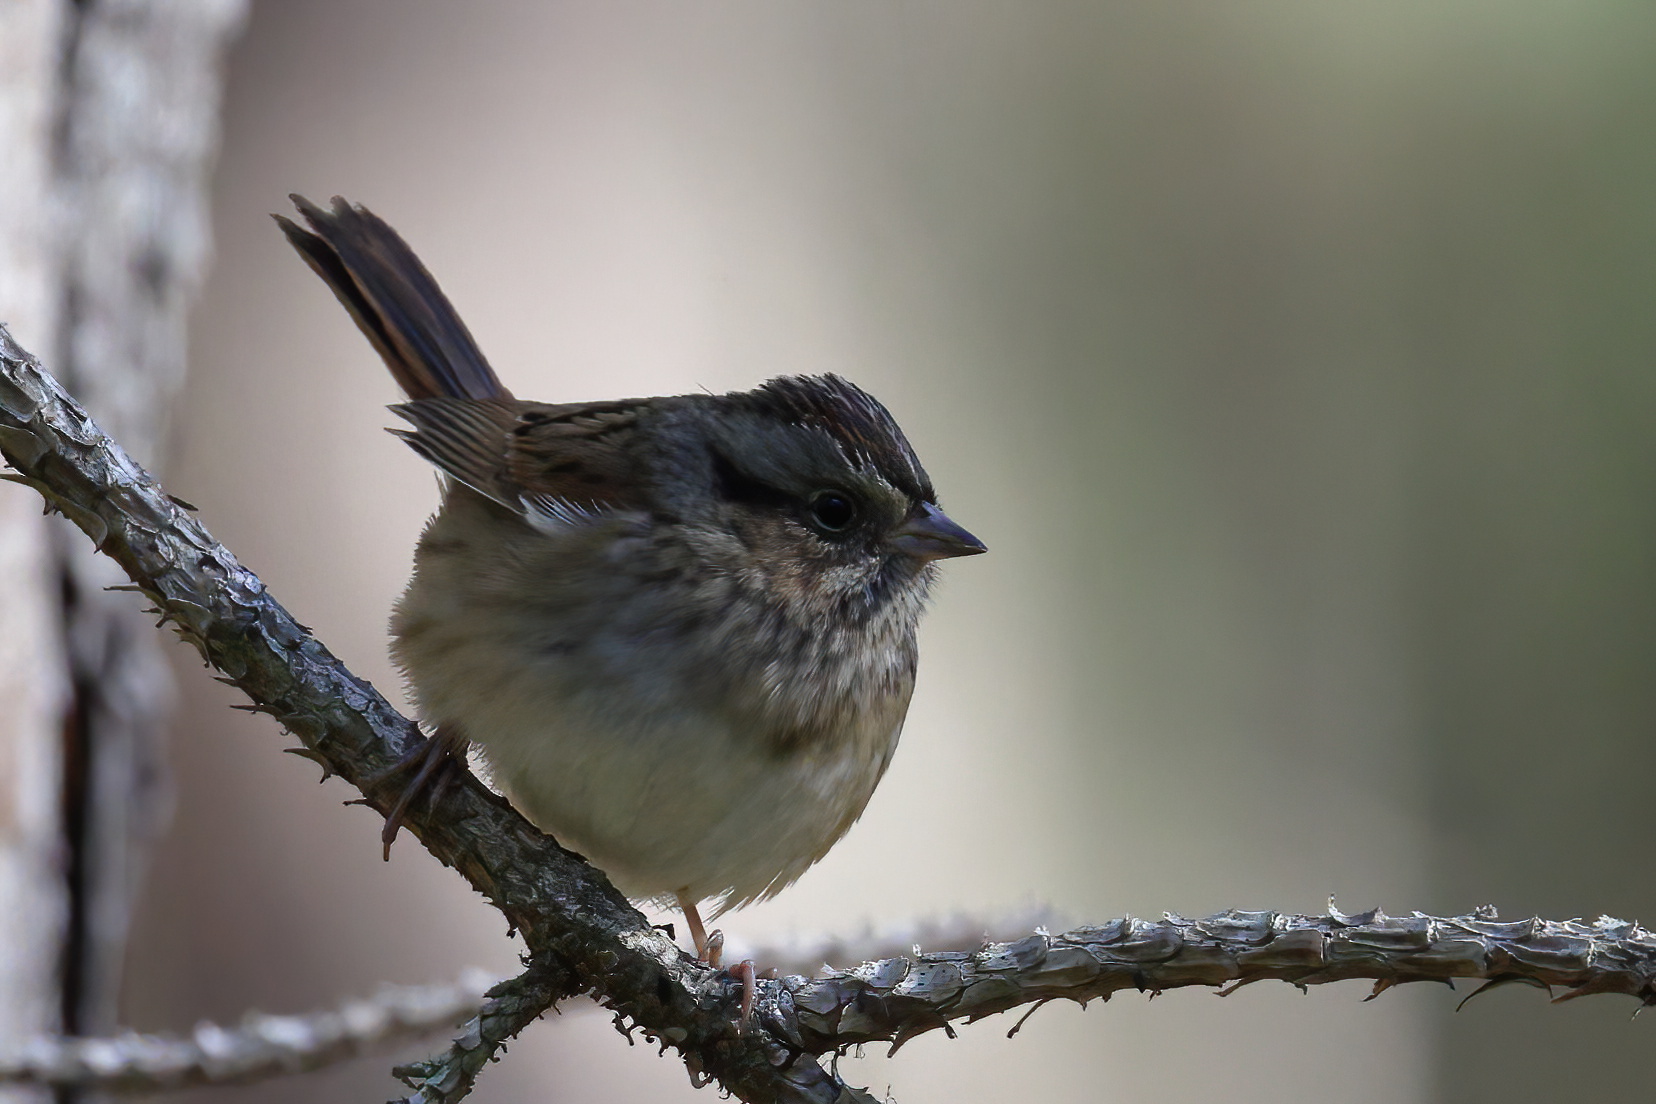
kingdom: Animalia
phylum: Chordata
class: Aves
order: Passeriformes
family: Passerellidae
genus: Melospiza
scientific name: Melospiza georgiana
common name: Swamp sparrow
